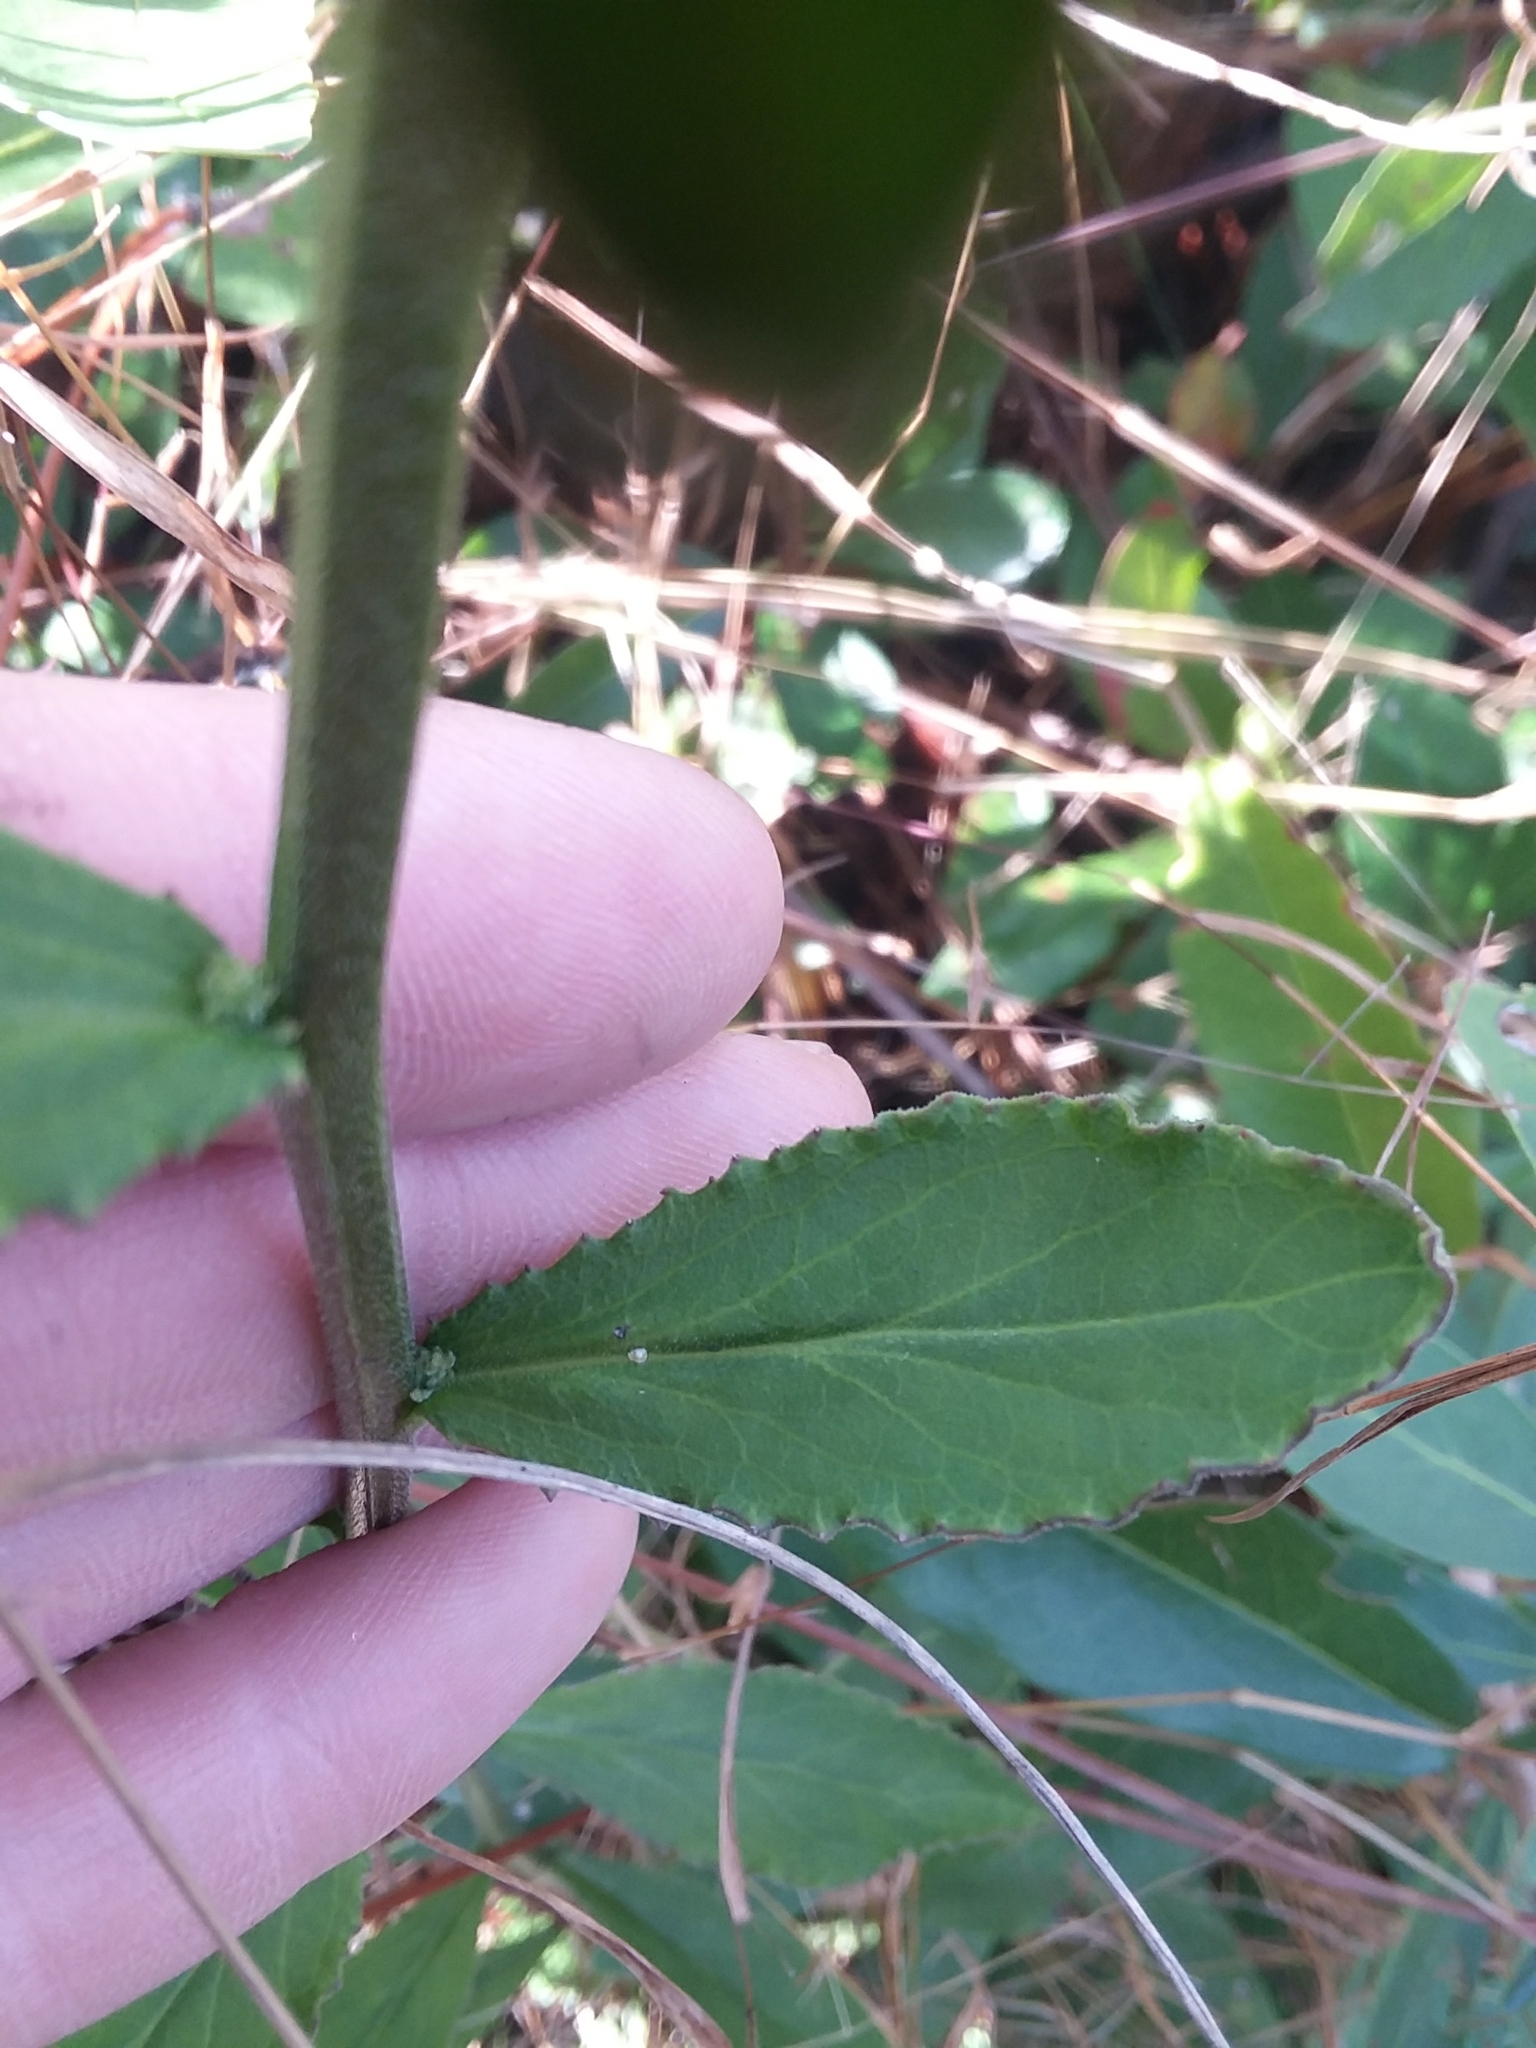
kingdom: Plantae
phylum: Tracheophyta
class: Magnoliopsida
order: Asterales
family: Campanulaceae
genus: Lobelia
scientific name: Lobelia rogersii
